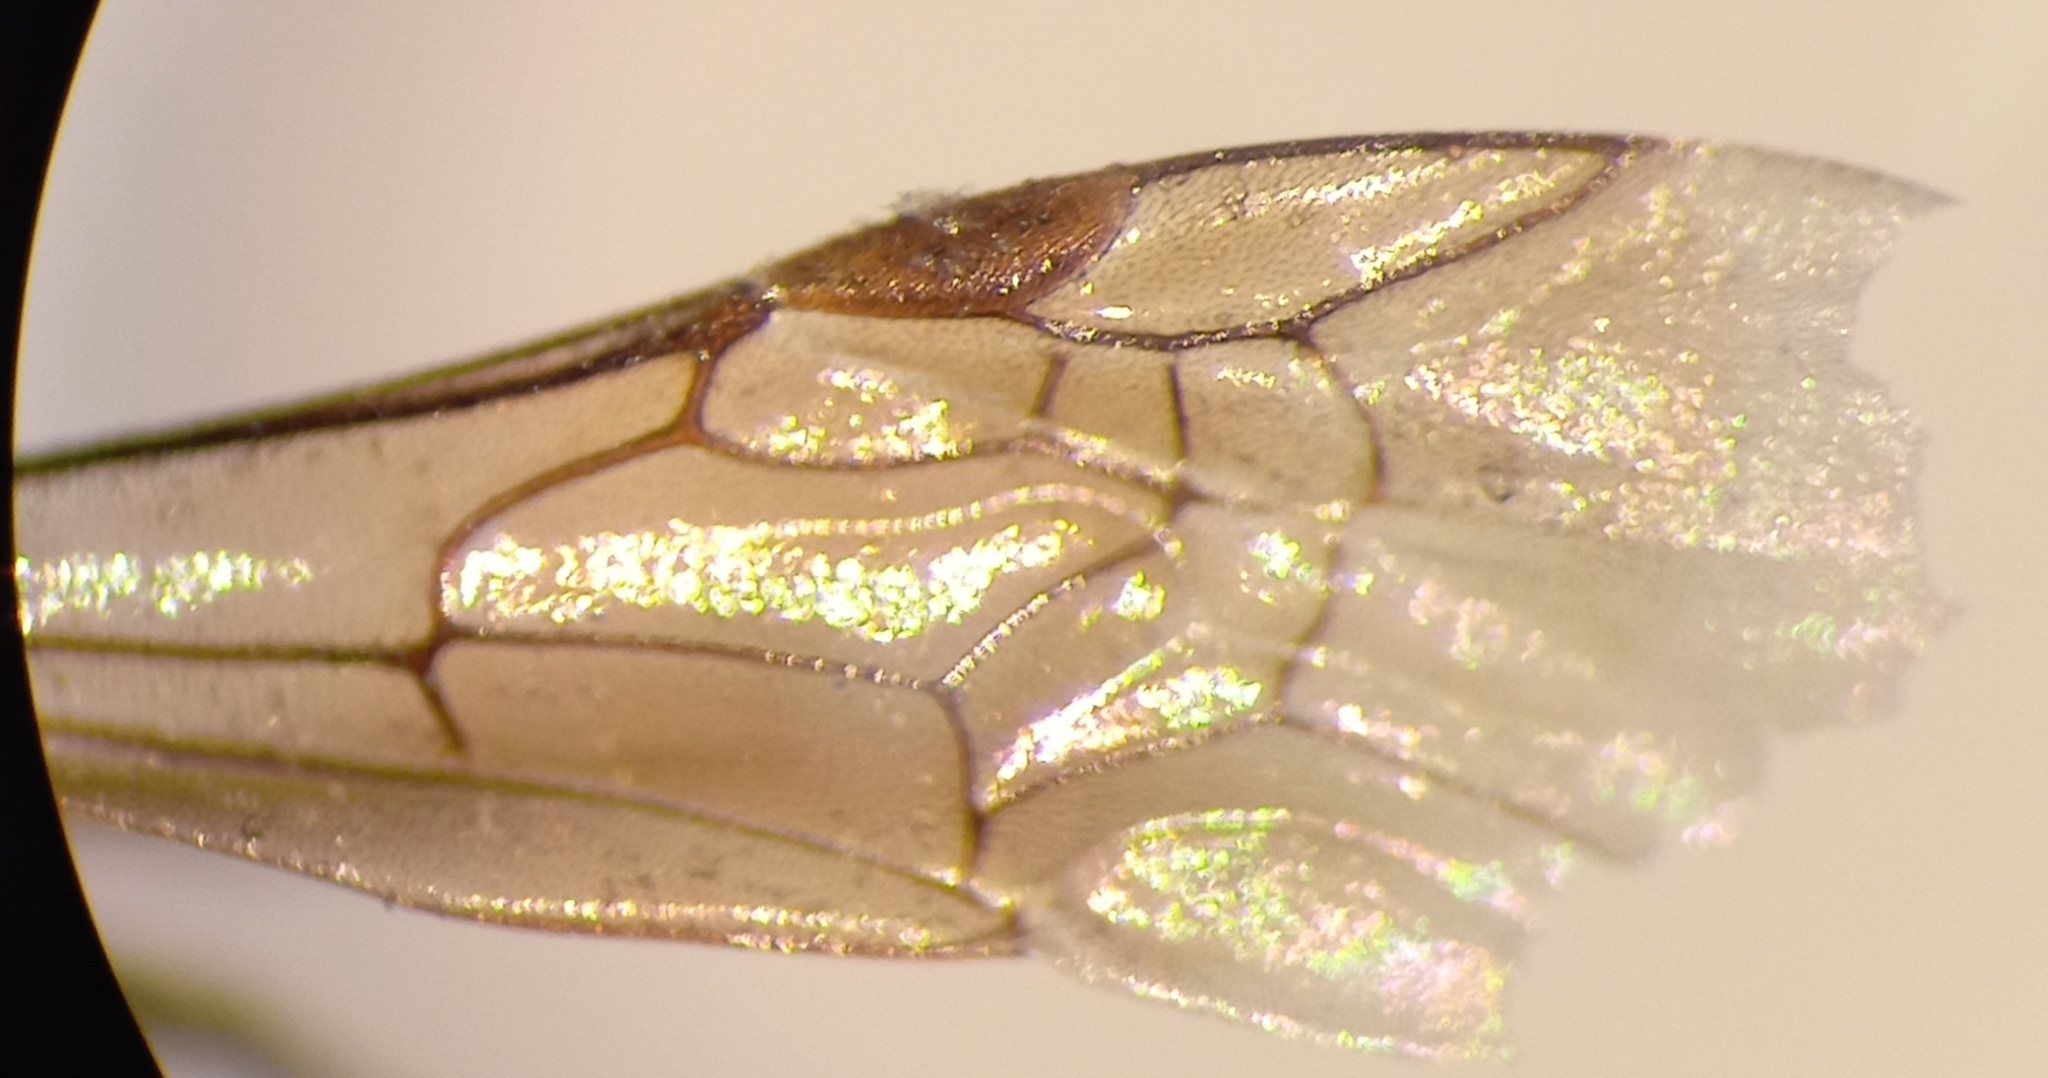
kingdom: Animalia
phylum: Arthropoda
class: Insecta
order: Hymenoptera
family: Halictidae
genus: Lasioglossum
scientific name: Lasioglossum interruptum
